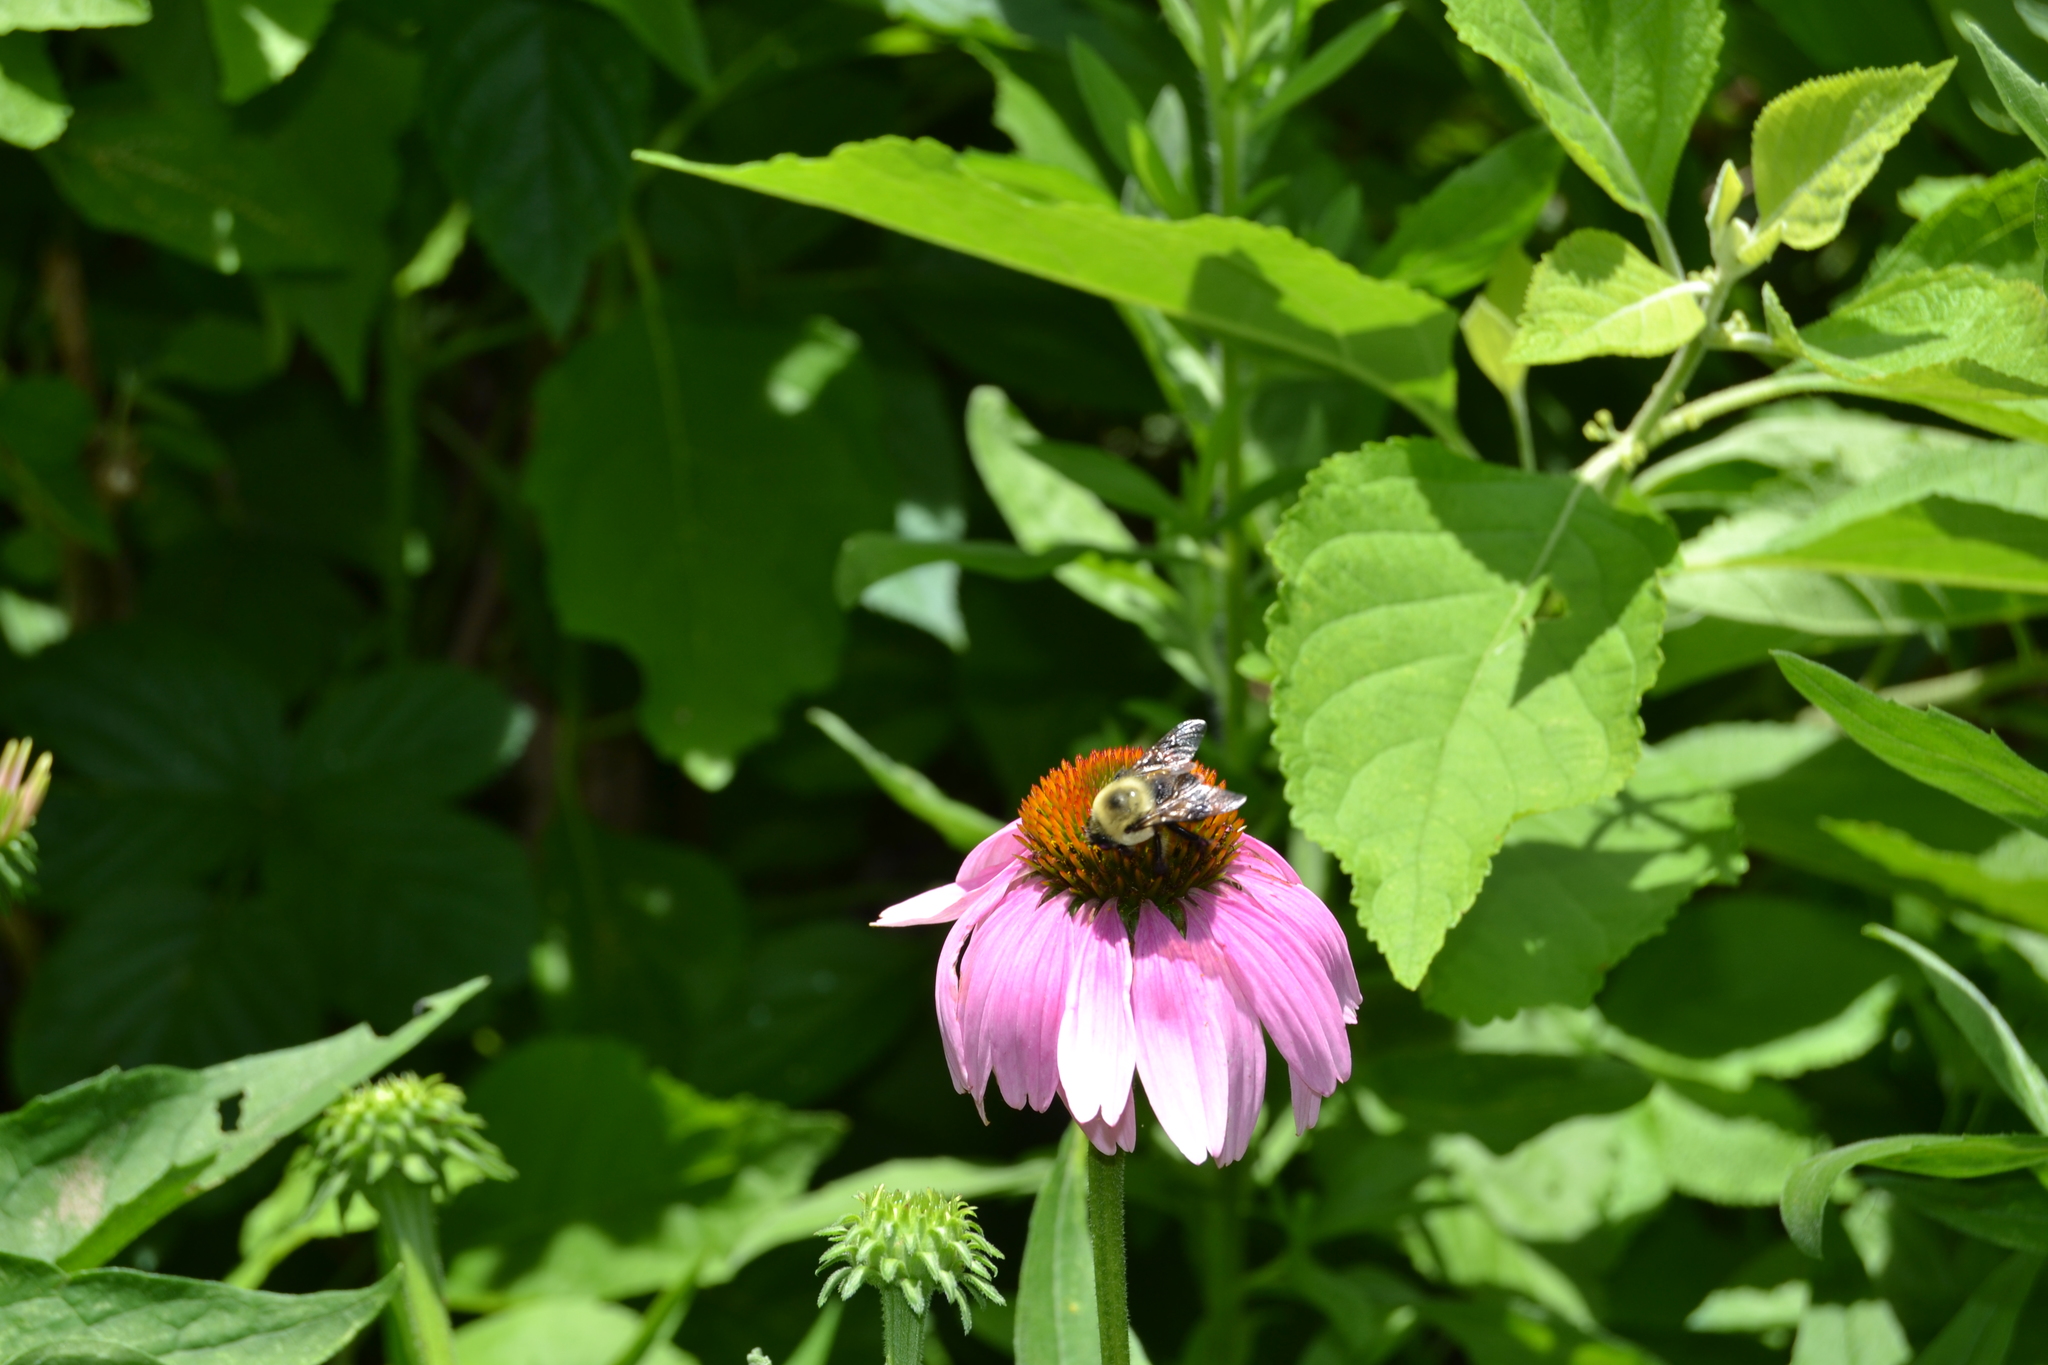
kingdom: Animalia
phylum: Arthropoda
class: Insecta
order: Hymenoptera
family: Apidae
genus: Bombus
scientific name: Bombus griseocollis
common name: Brown-belted bumble bee
